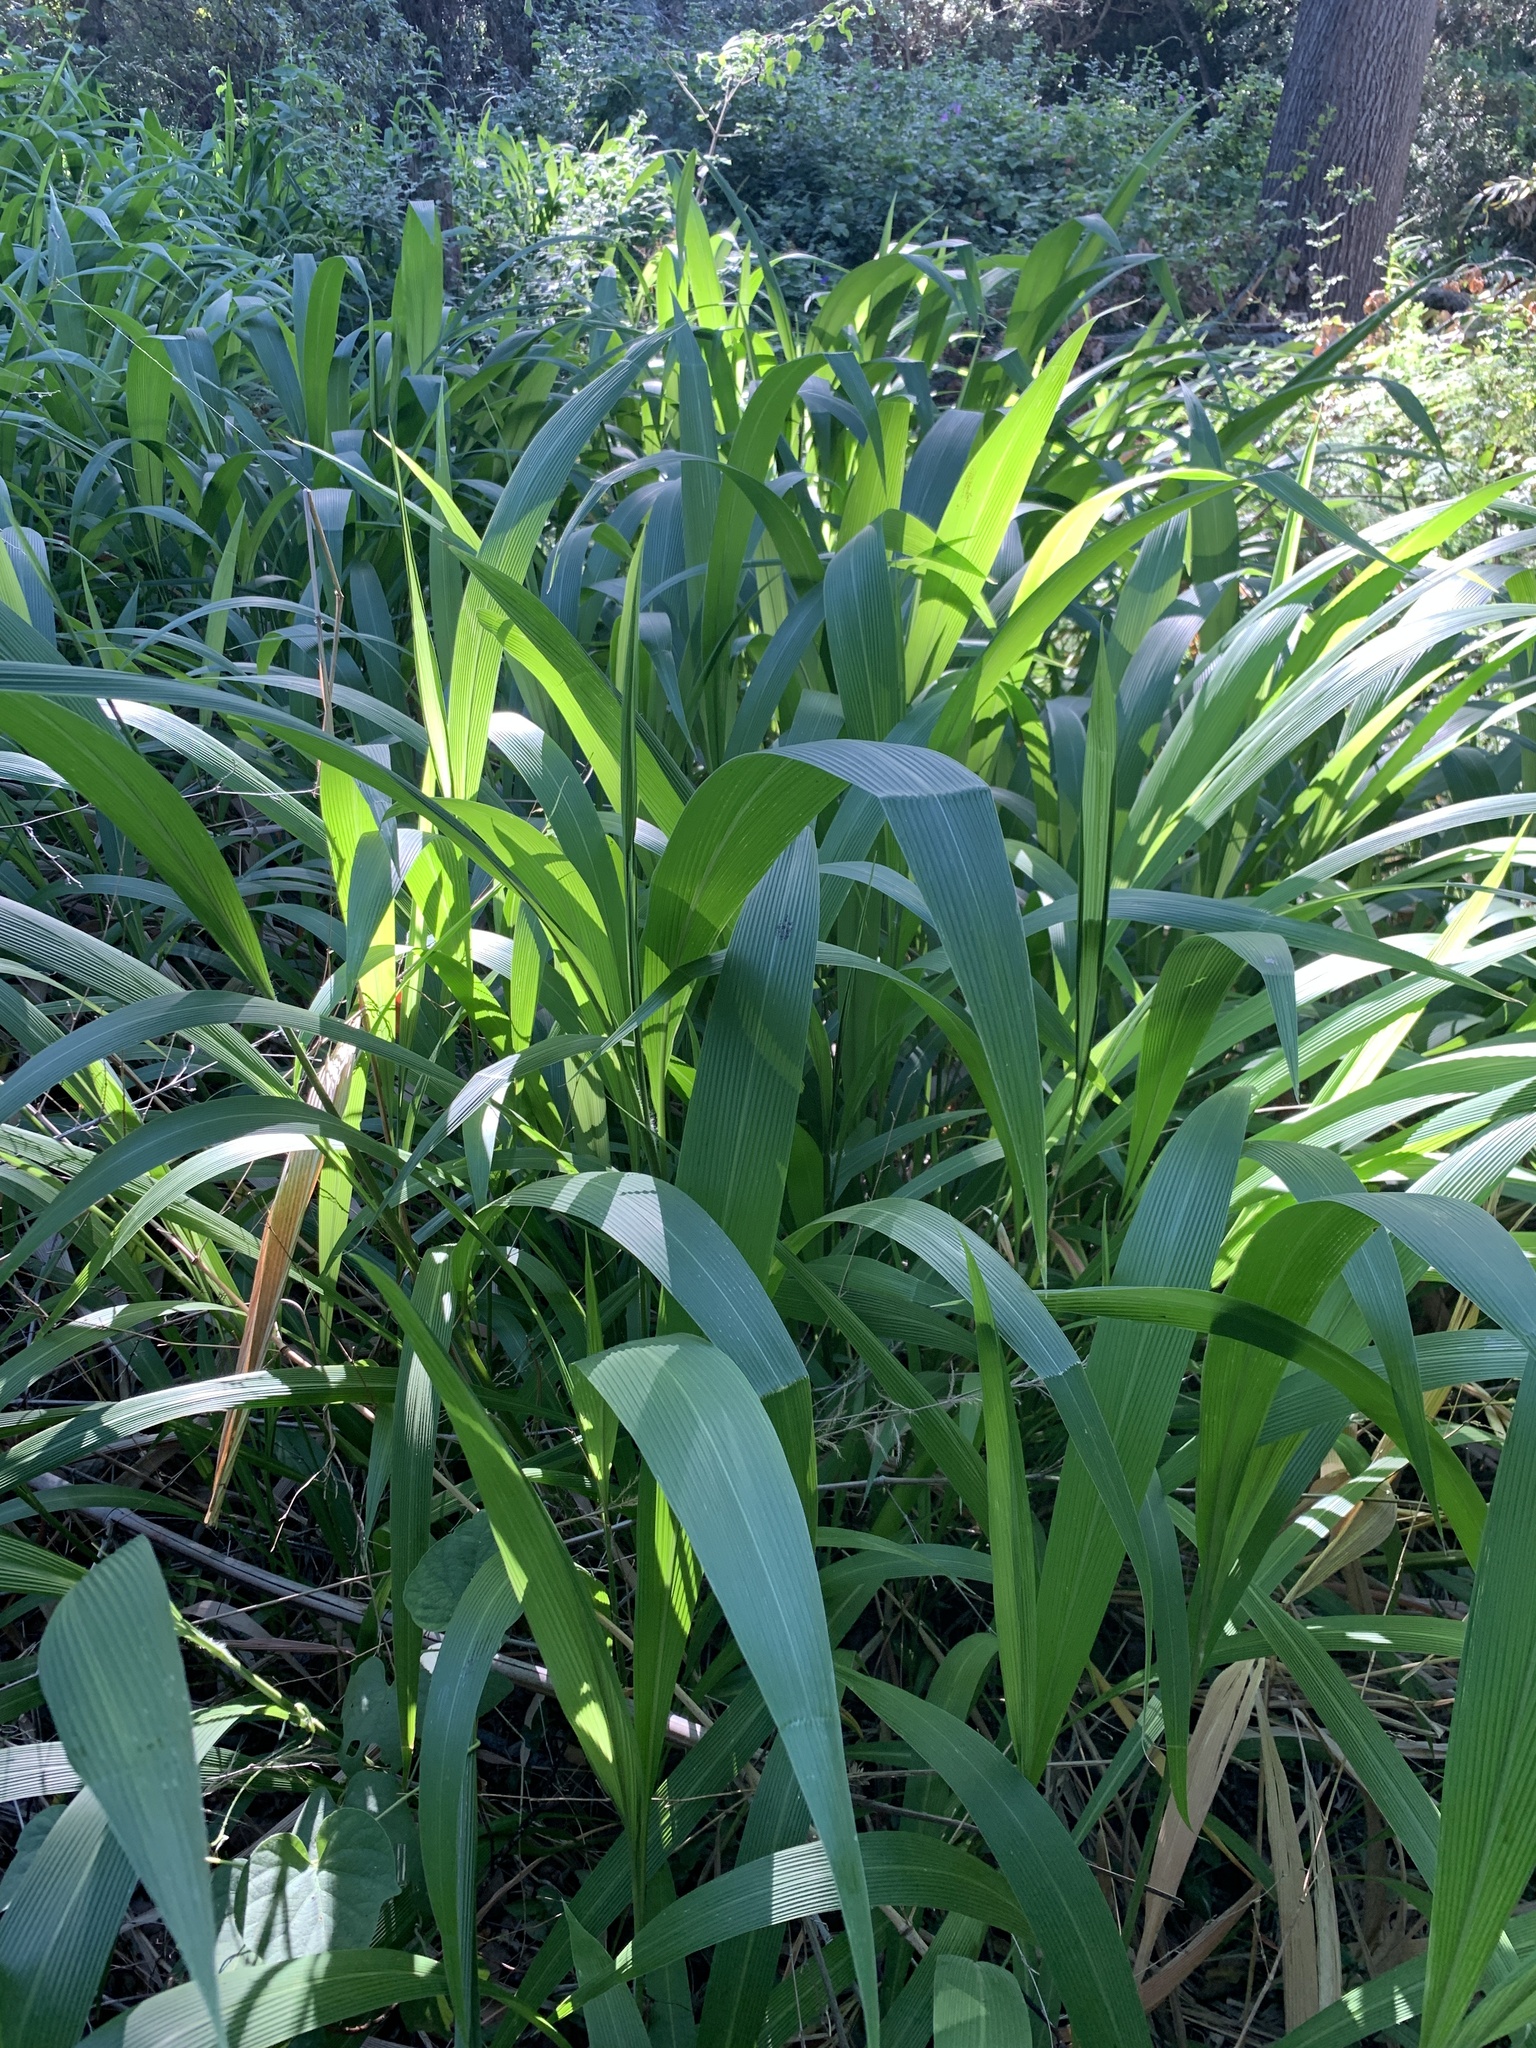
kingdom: Plantae
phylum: Tracheophyta
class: Liliopsida
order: Poales
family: Poaceae
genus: Setaria
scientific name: Setaria megaphylla
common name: Bigleaf bristlegrass
